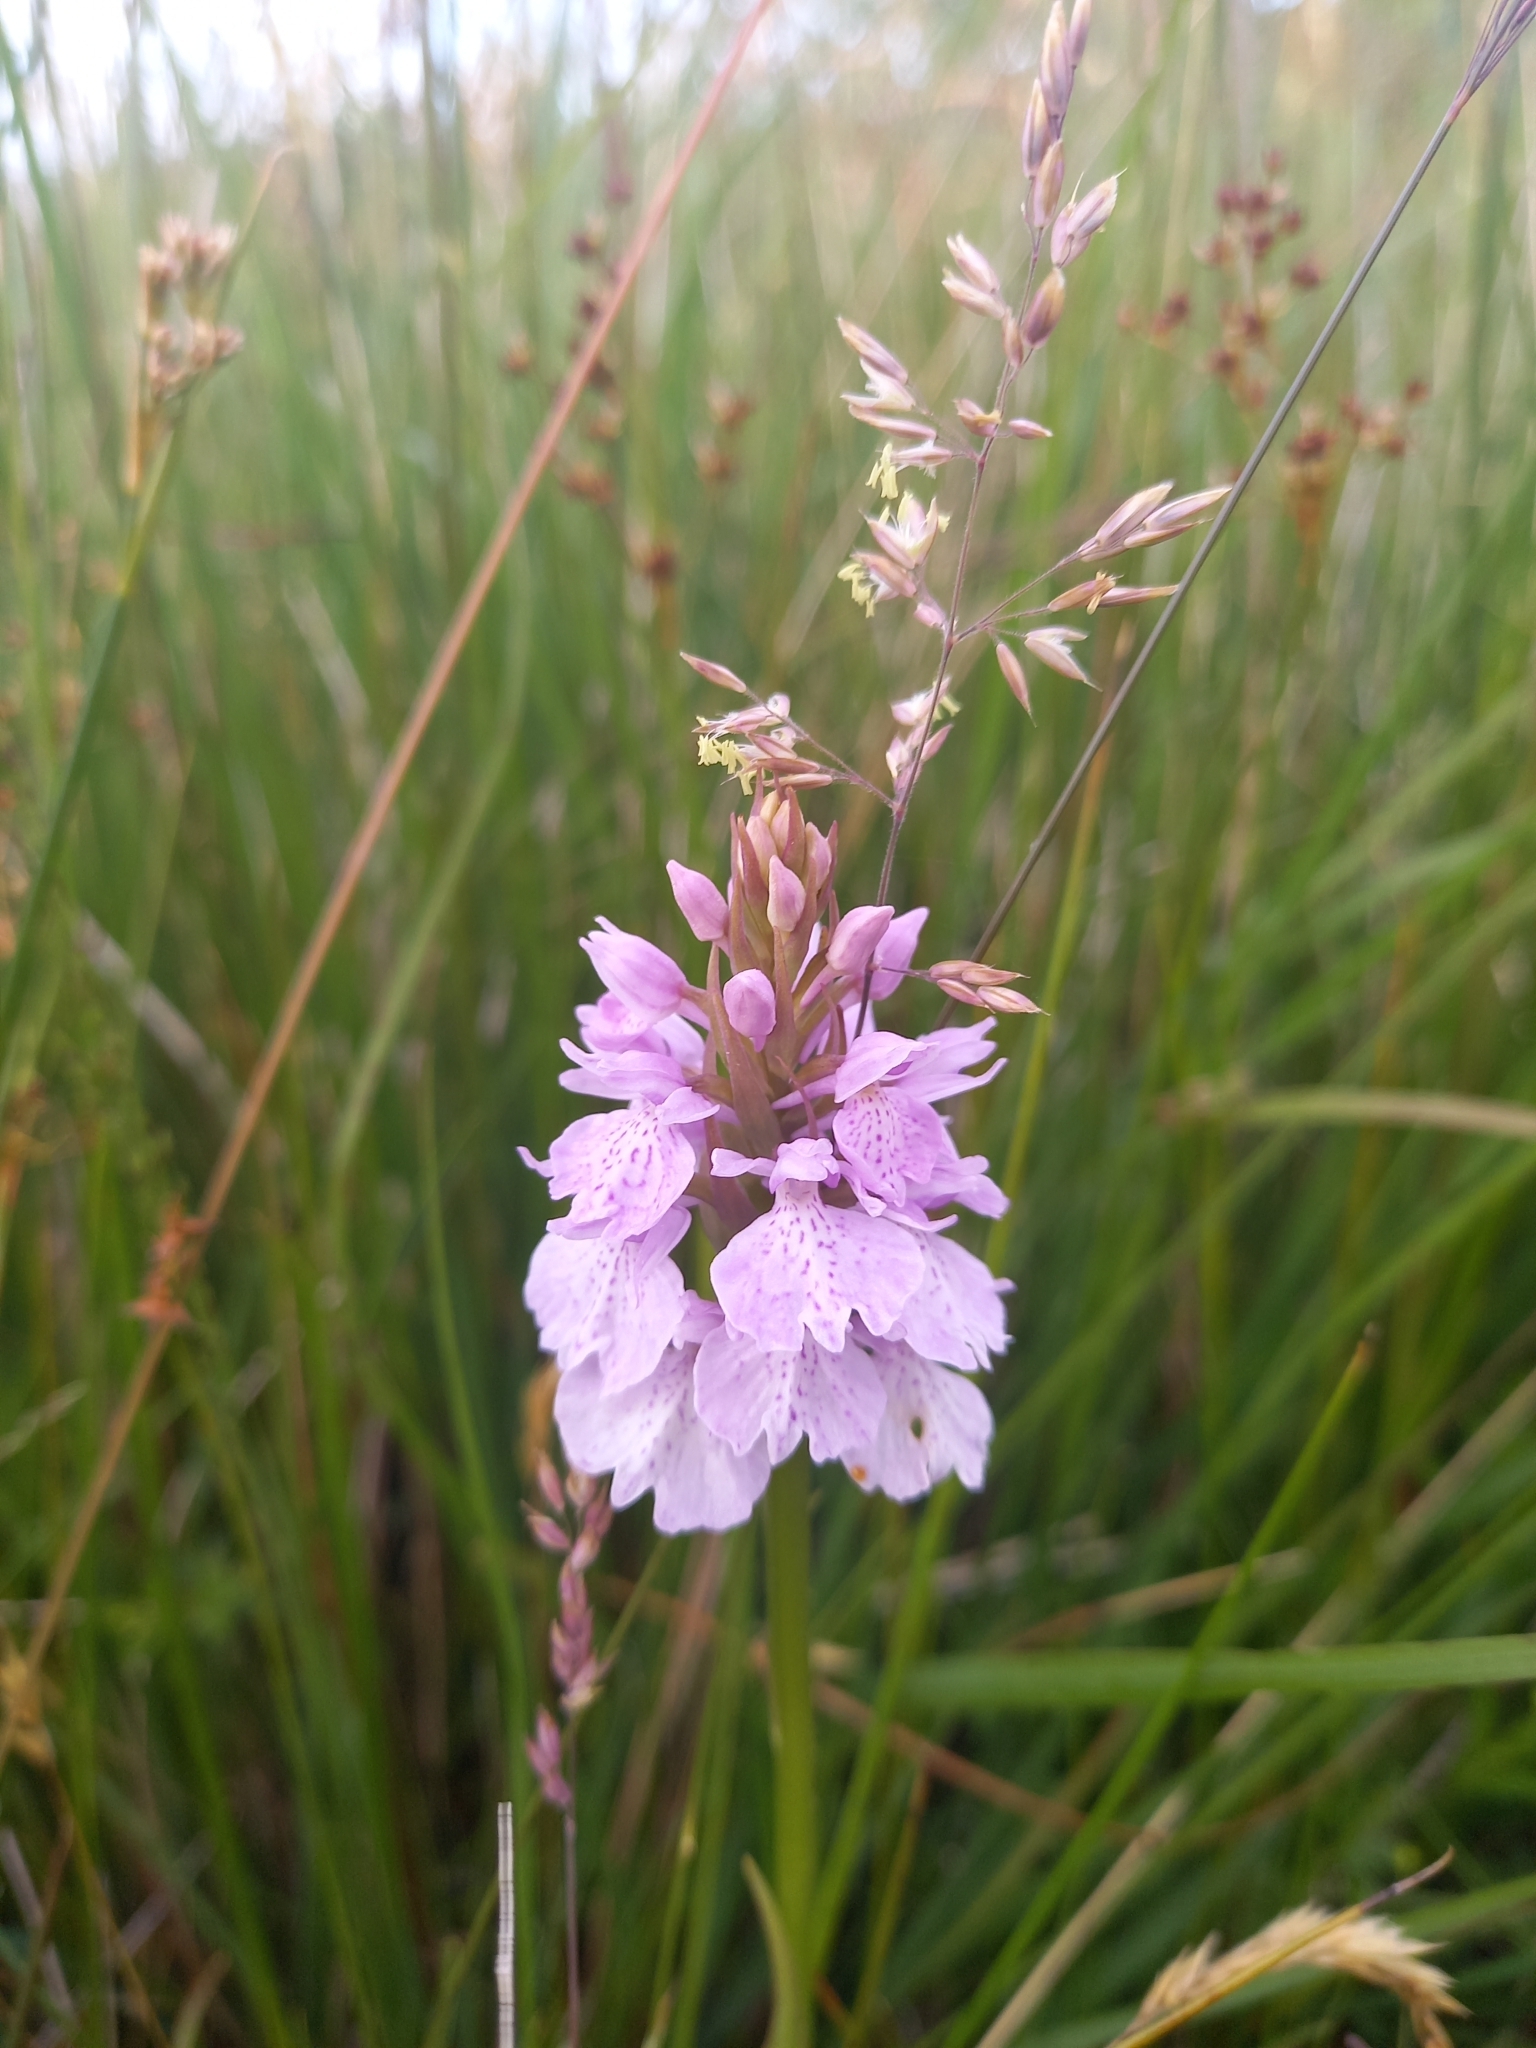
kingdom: Plantae
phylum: Tracheophyta
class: Liliopsida
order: Asparagales
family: Orchidaceae
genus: Dactylorhiza
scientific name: Dactylorhiza maculata
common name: Heath spotted-orchid
